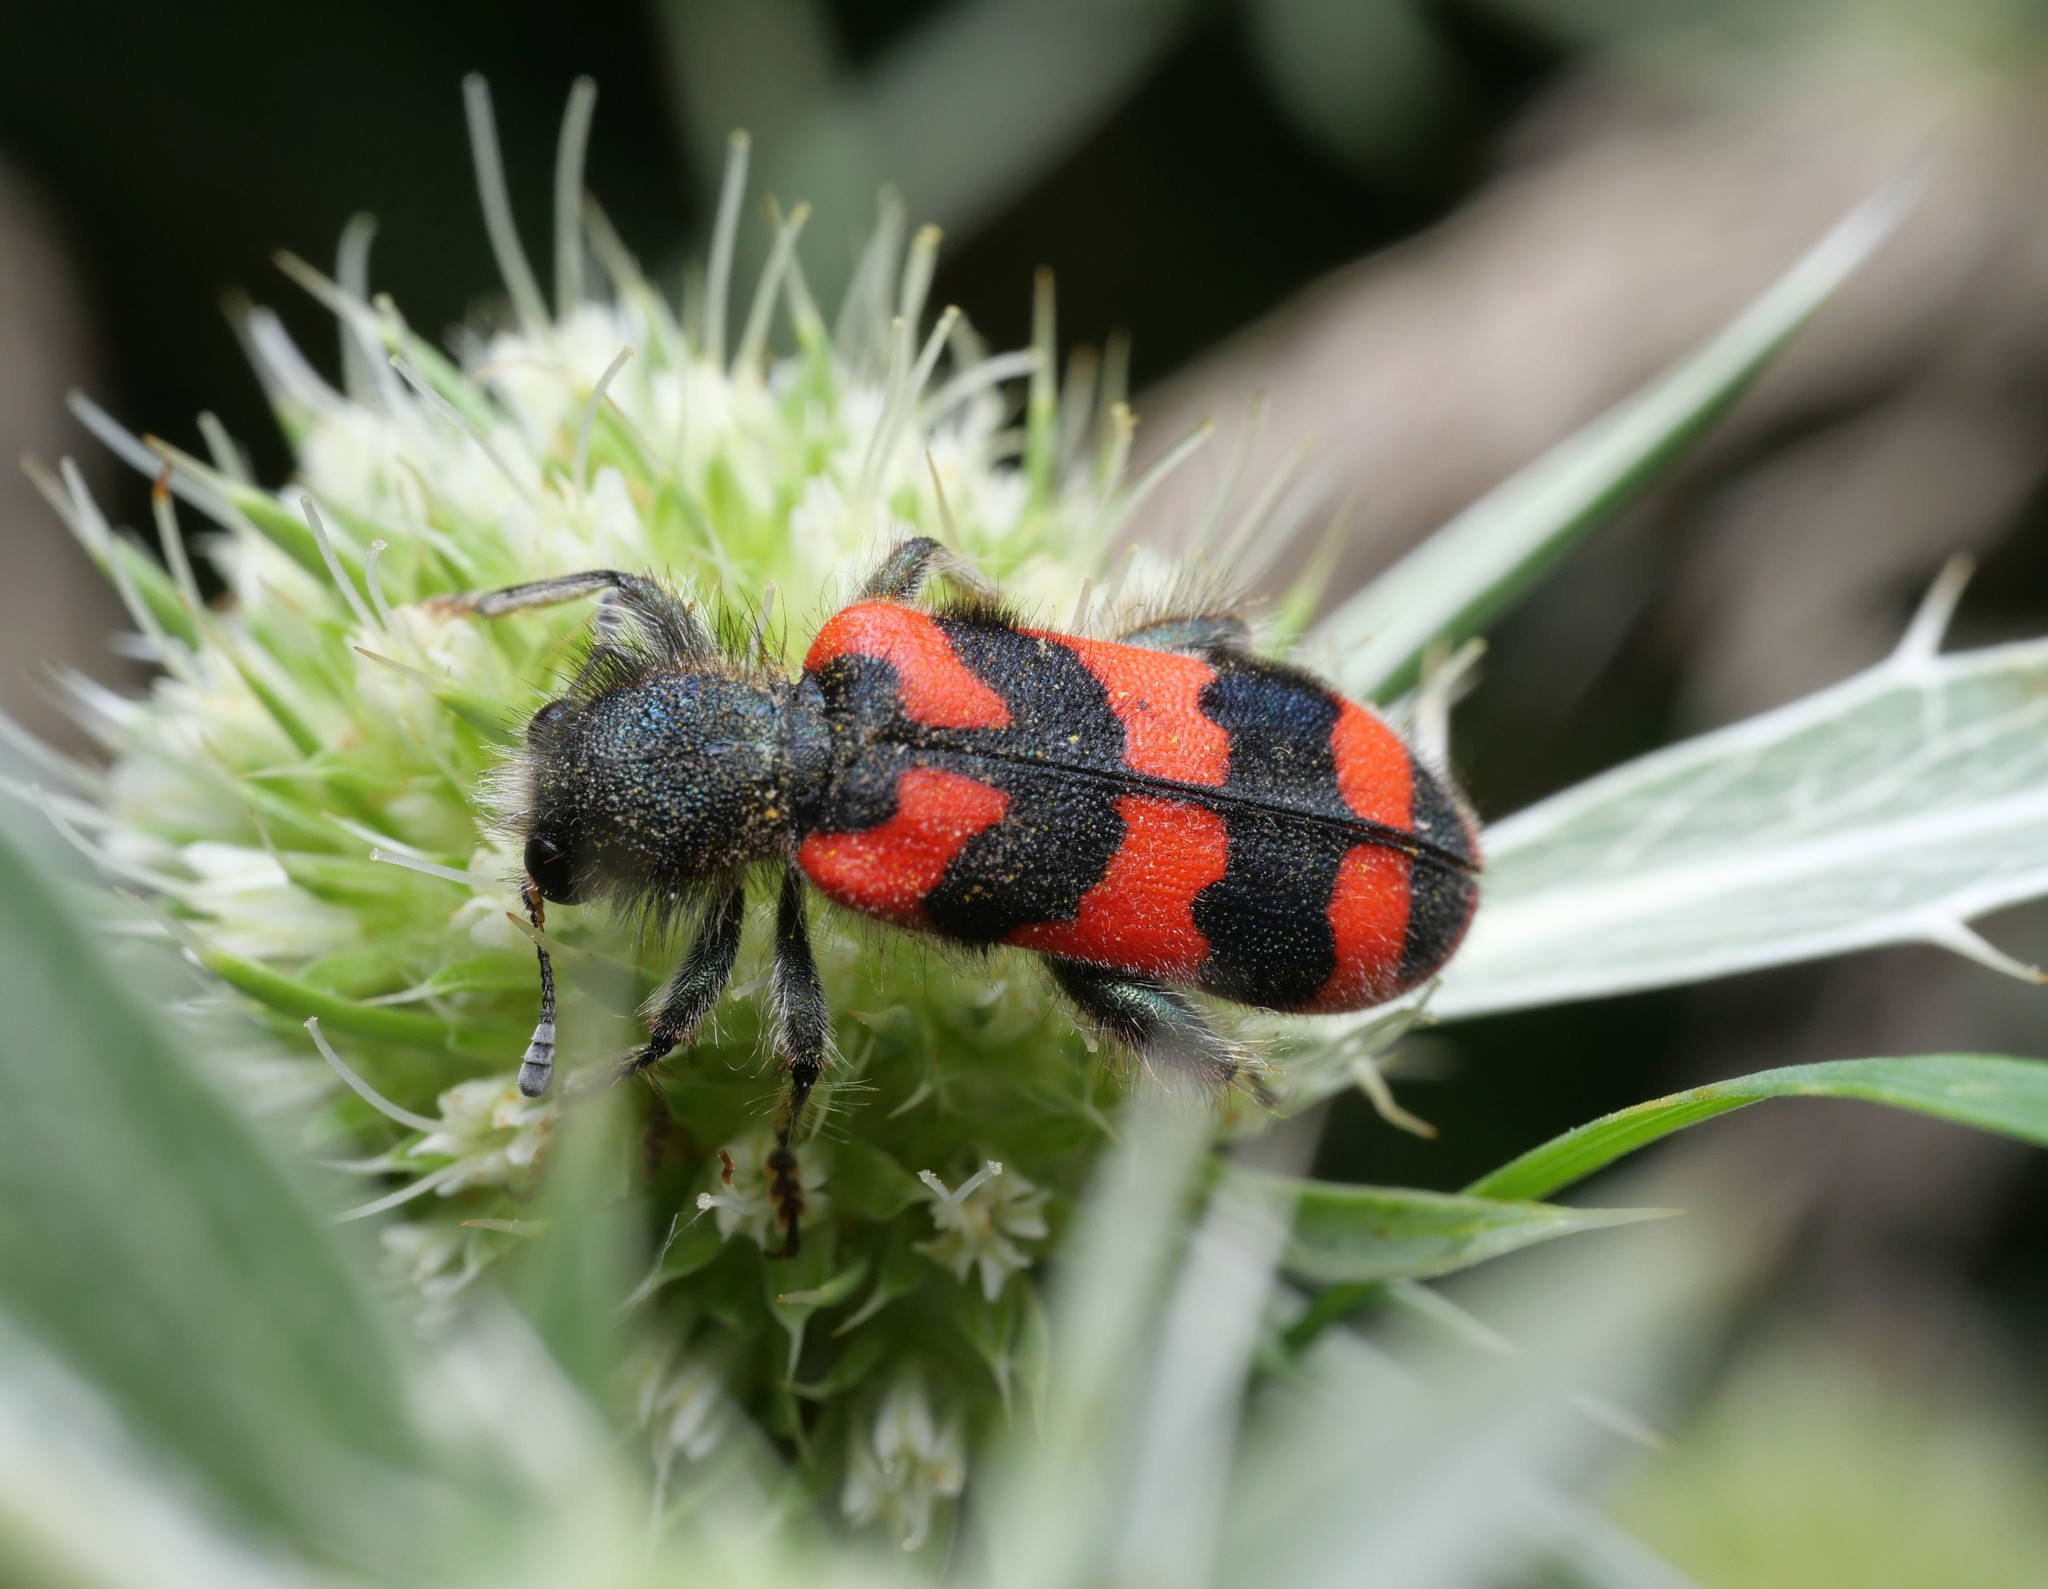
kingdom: Animalia
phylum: Arthropoda
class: Insecta
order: Coleoptera
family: Cleridae
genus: Trichodes
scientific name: Trichodes alvearius
